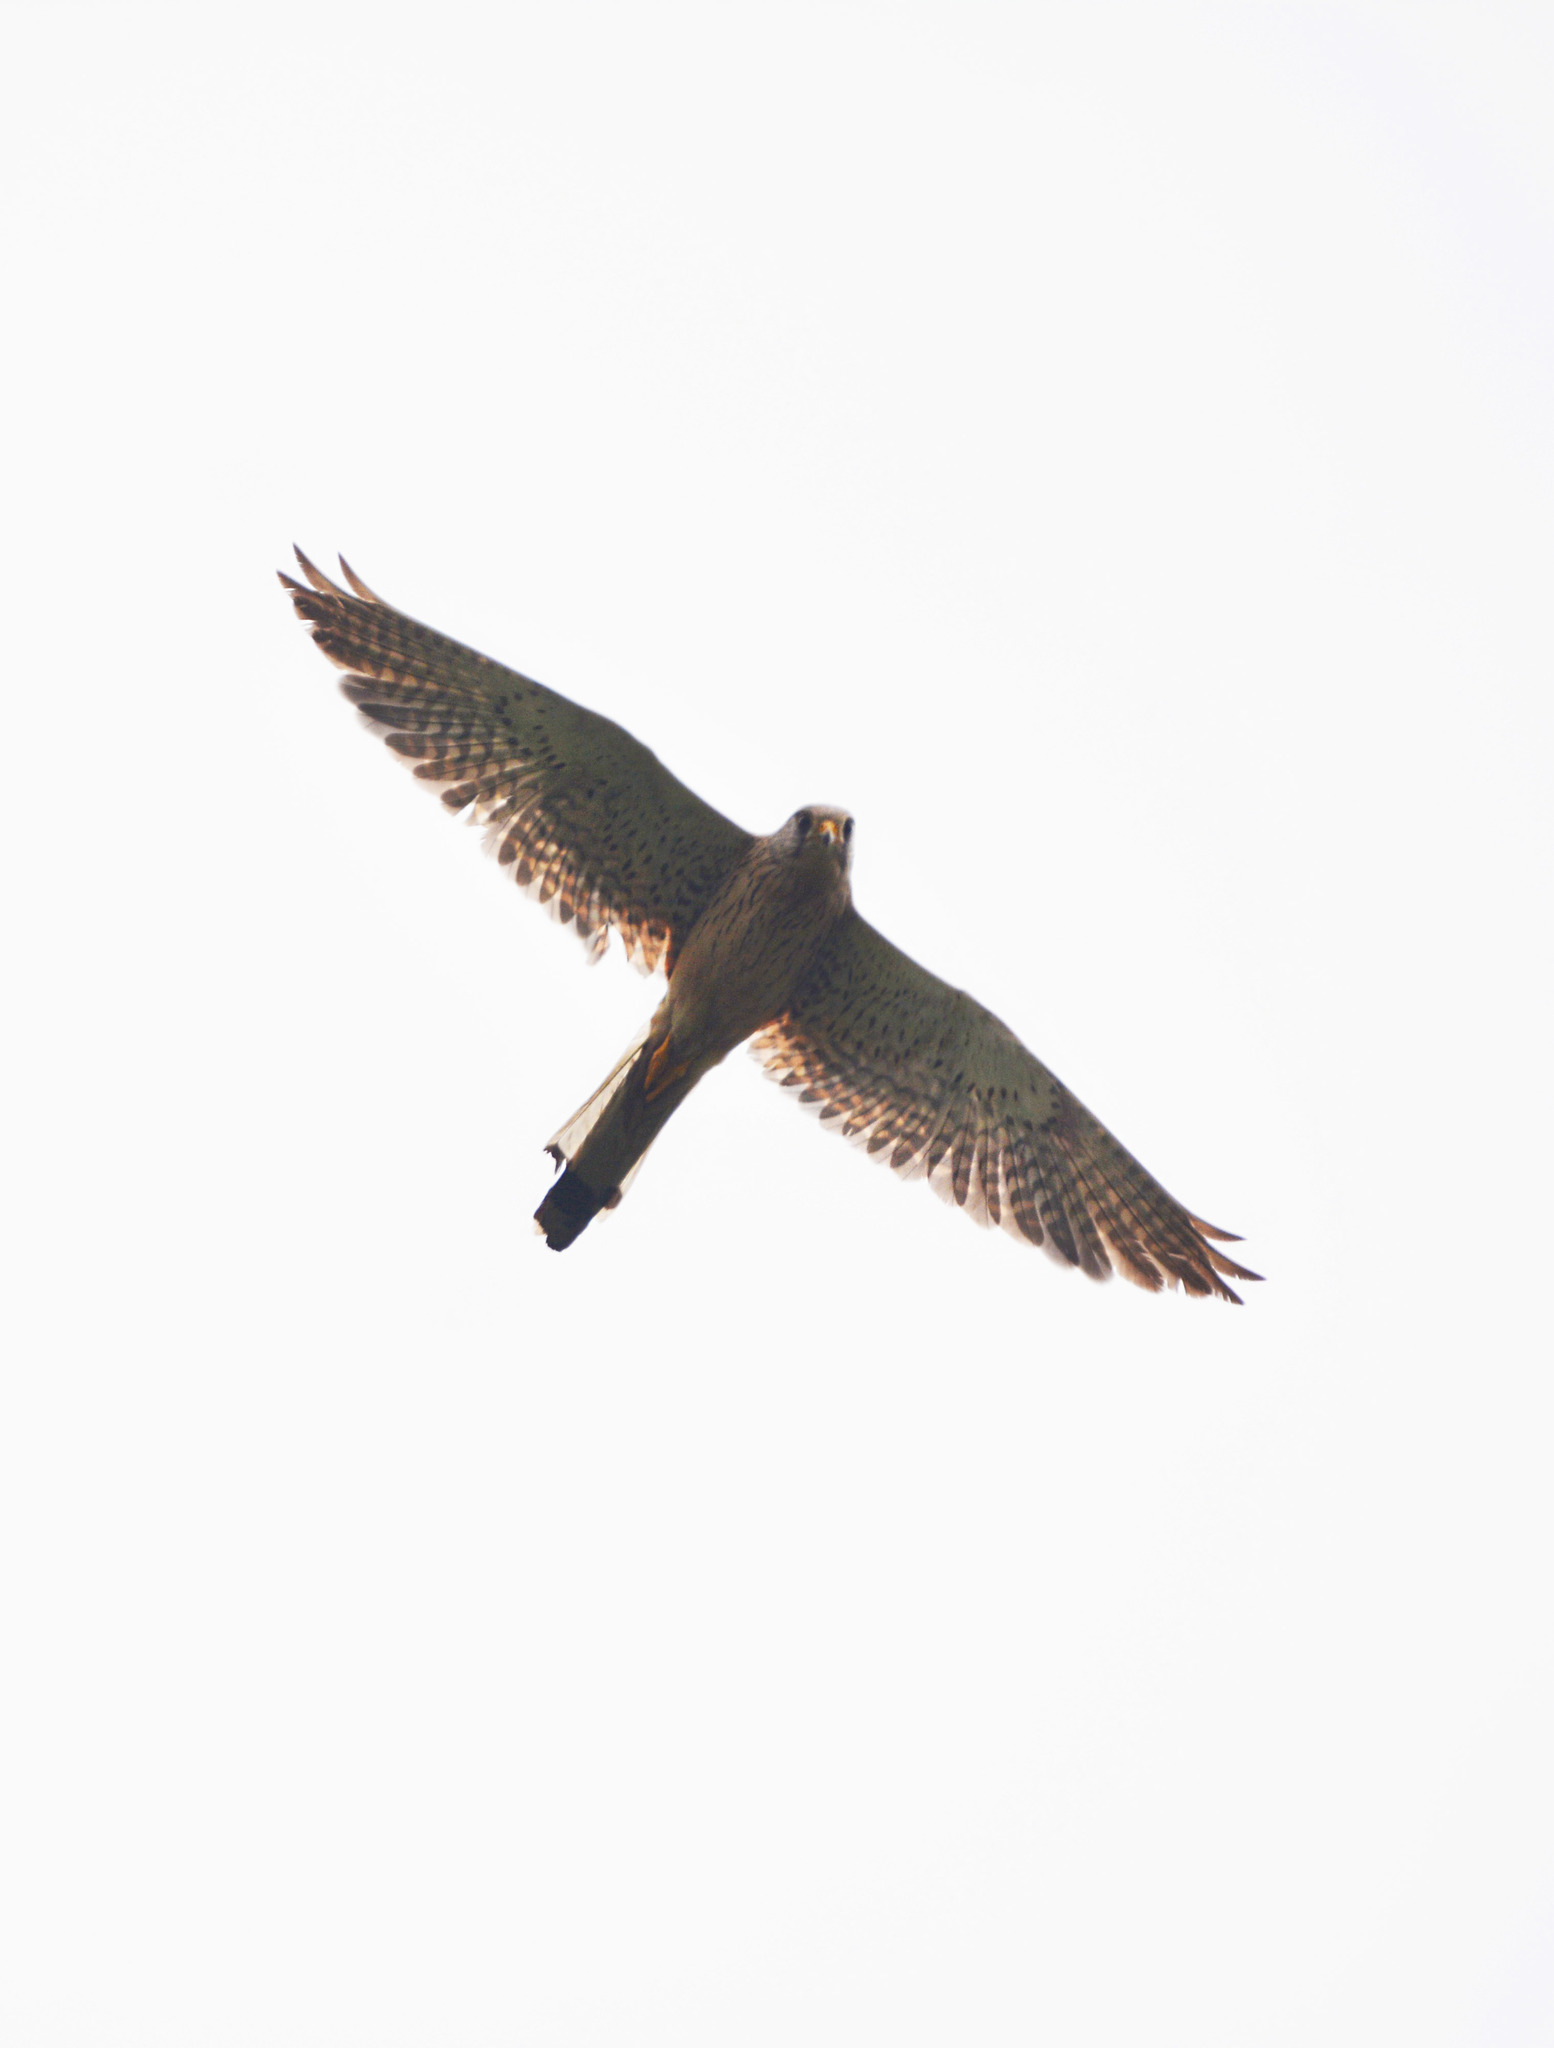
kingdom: Animalia
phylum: Chordata
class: Aves
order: Falconiformes
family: Falconidae
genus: Falco
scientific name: Falco tinnunculus
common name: Common kestrel
